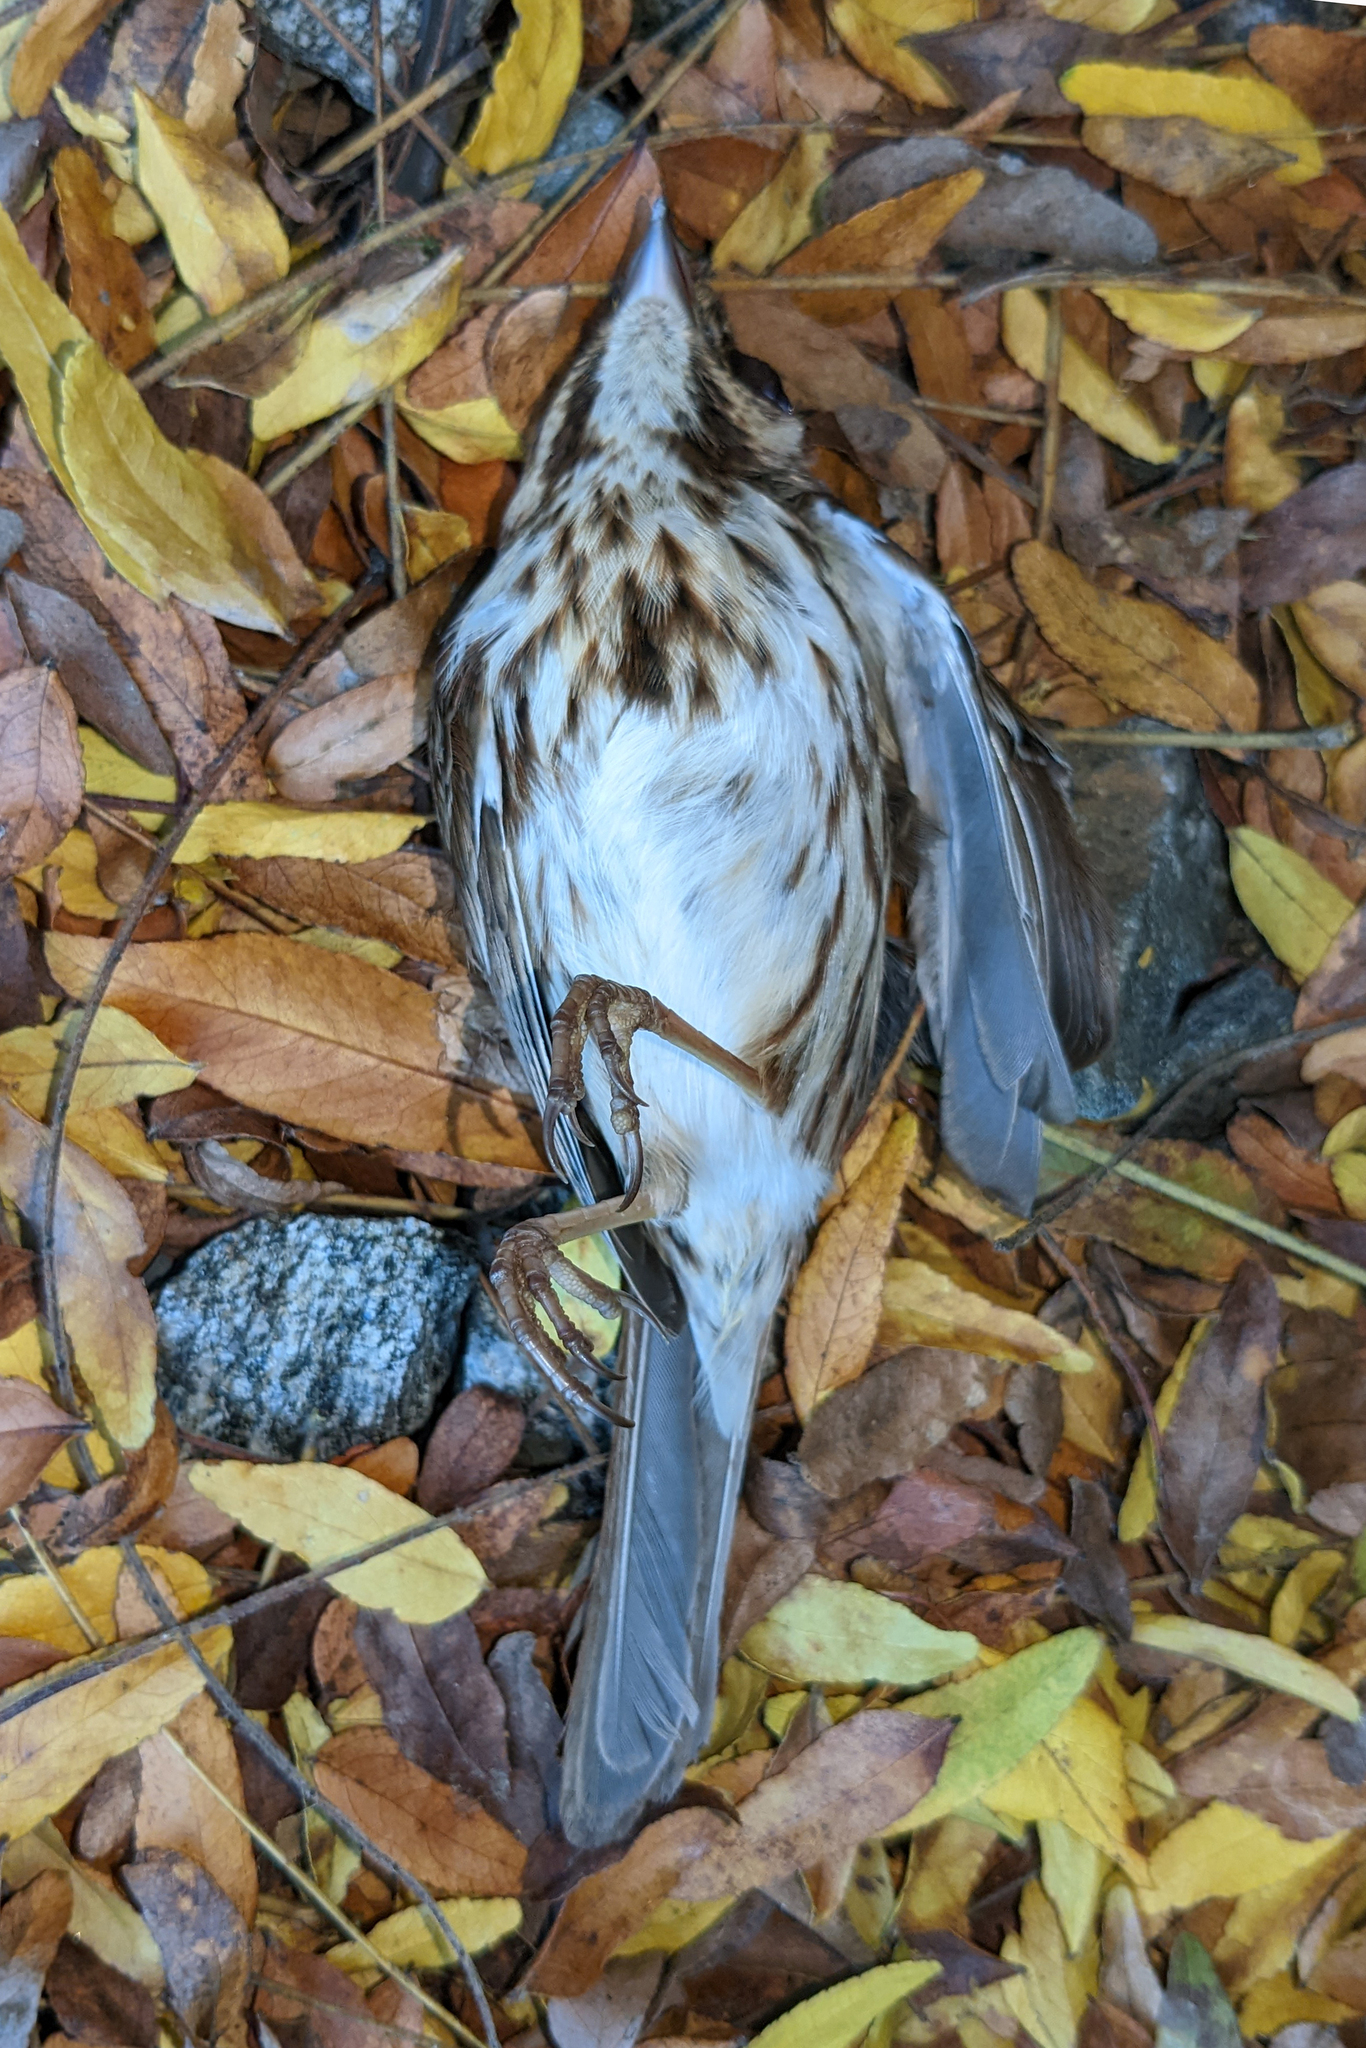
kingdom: Animalia
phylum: Chordata
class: Aves
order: Passeriformes
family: Passerellidae
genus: Melospiza
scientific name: Melospiza melodia
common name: Song sparrow
